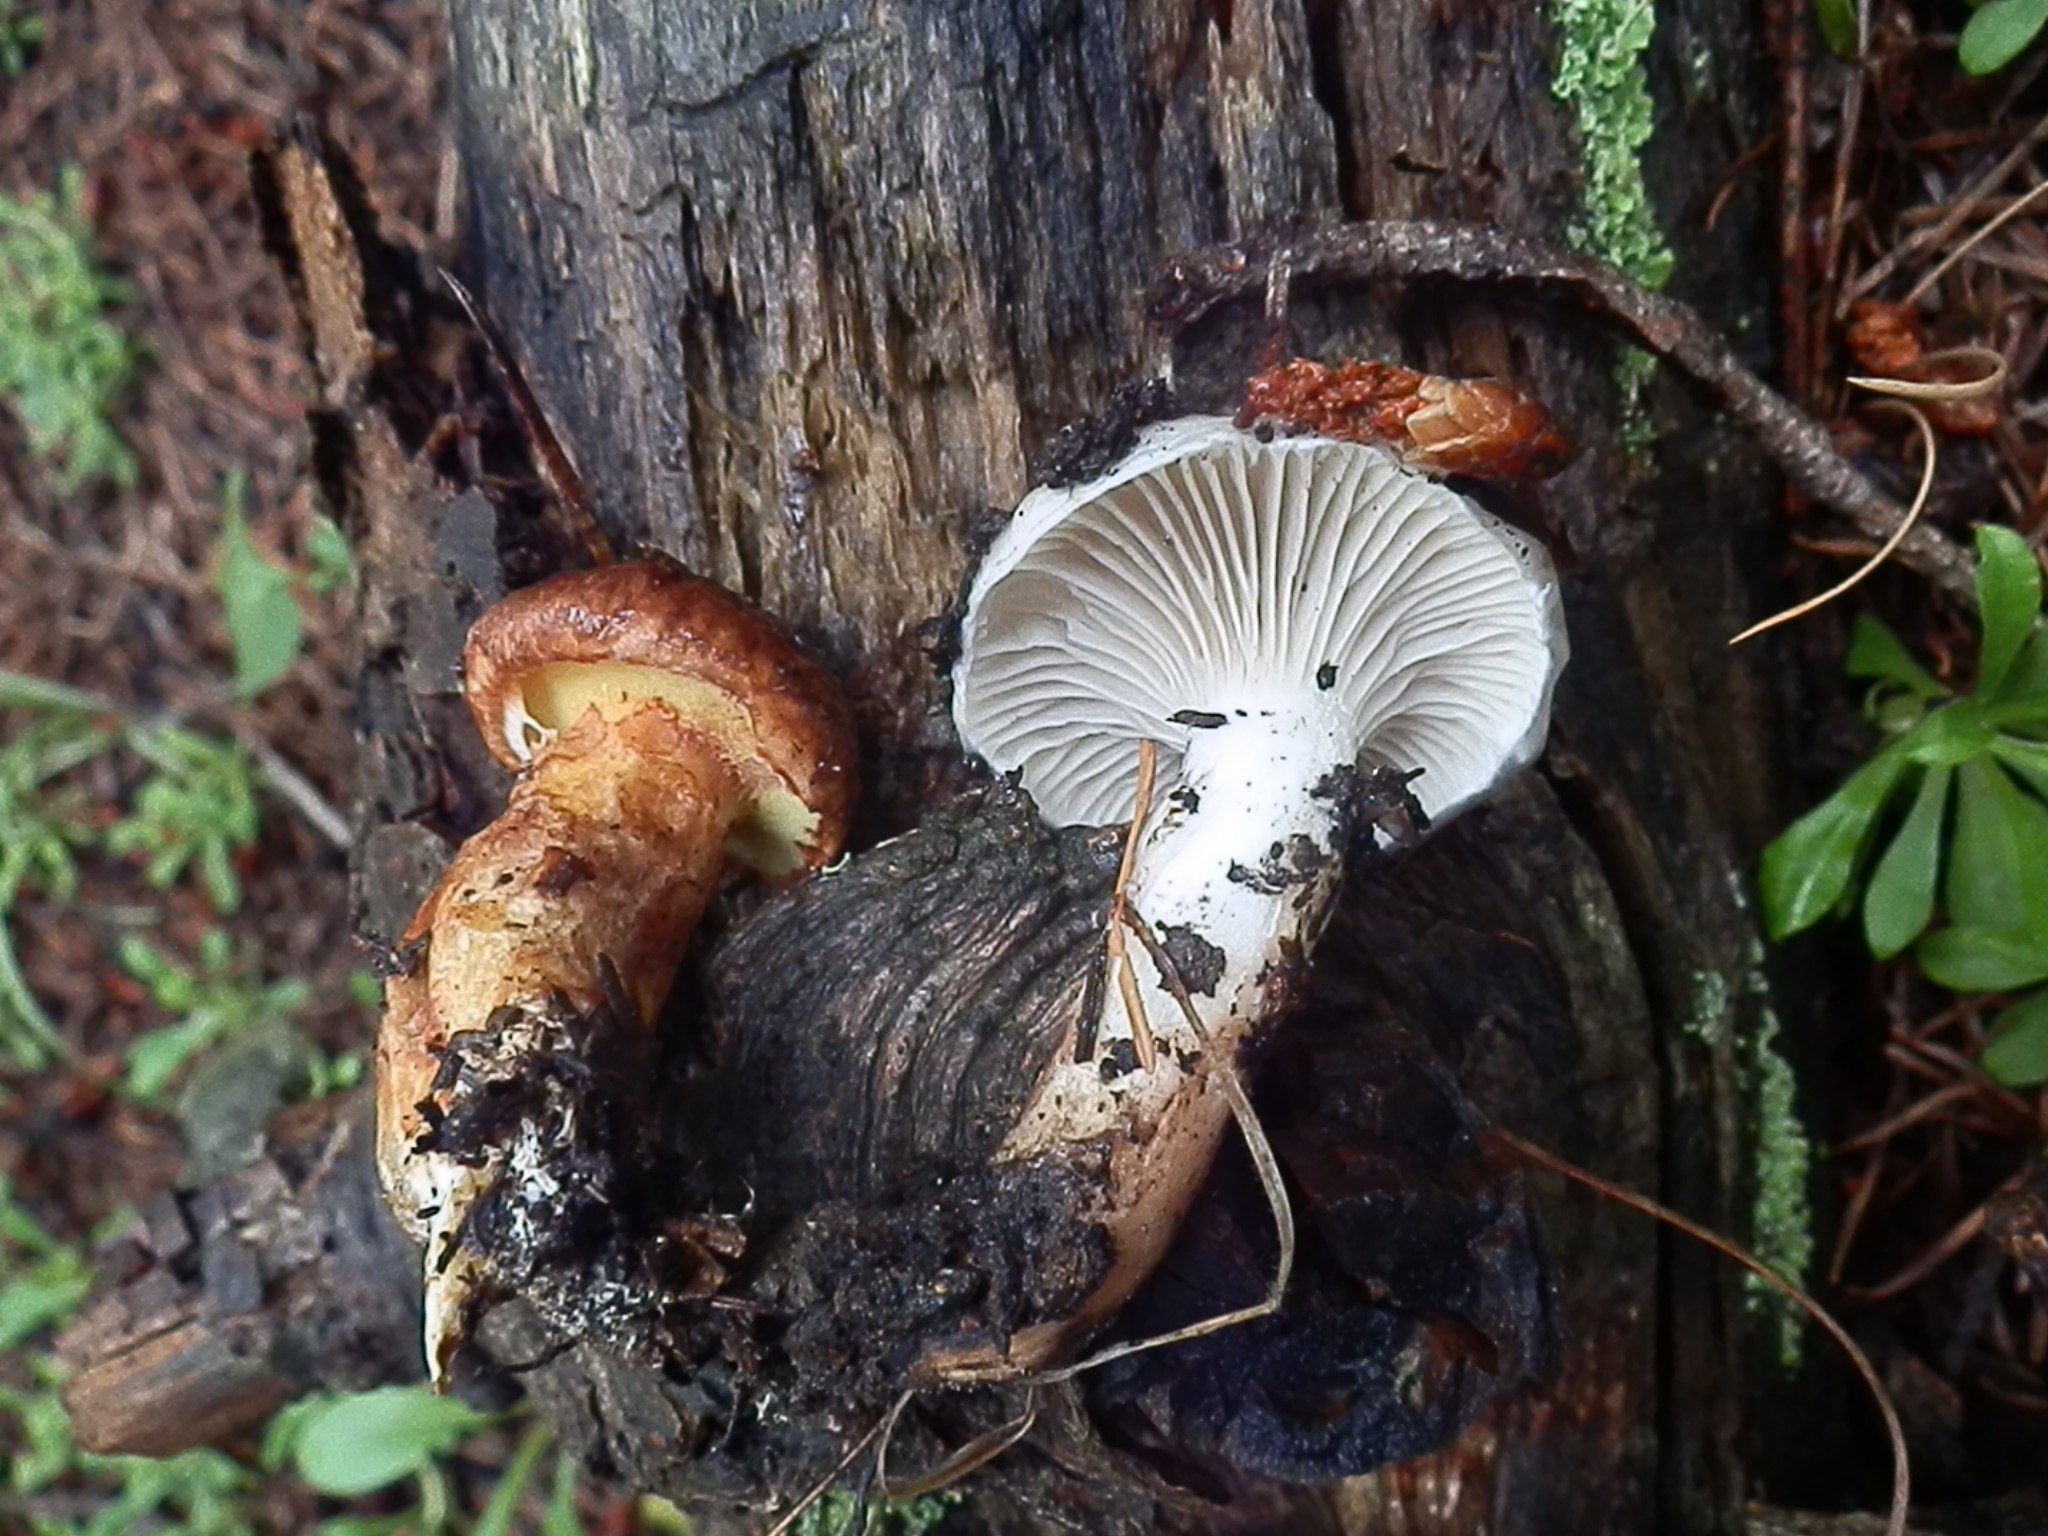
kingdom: Fungi
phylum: Basidiomycota
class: Agaricomycetes
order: Boletales
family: Gomphidiaceae
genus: Gomphidius
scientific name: Gomphidius smithii
